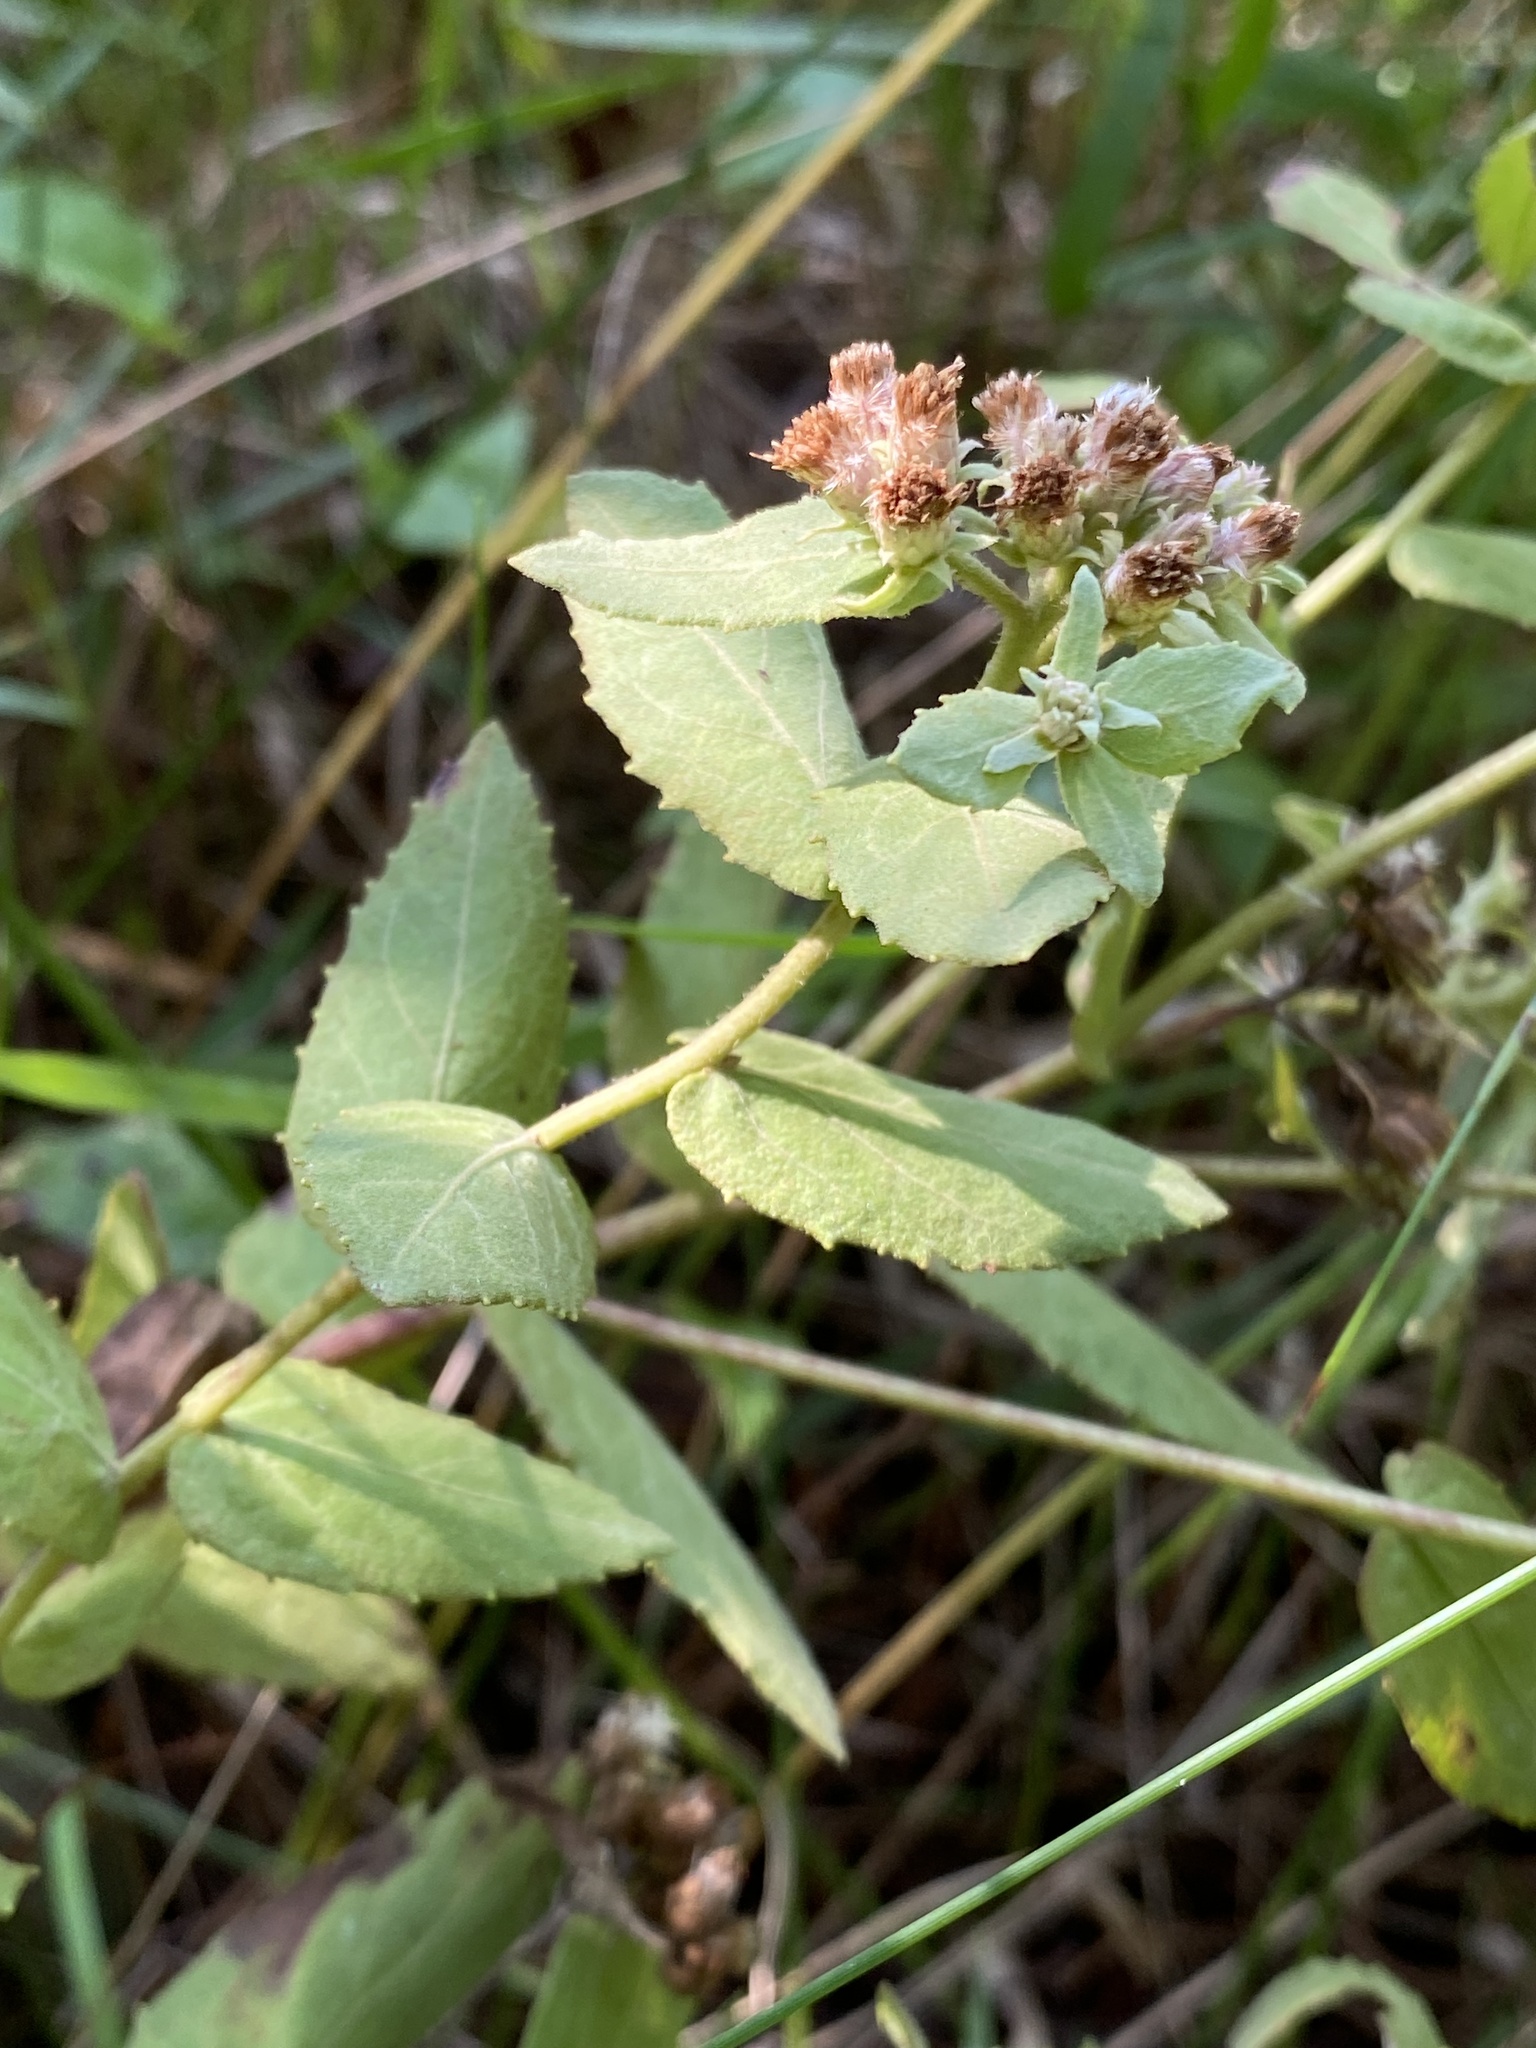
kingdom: Plantae
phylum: Tracheophyta
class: Magnoliopsida
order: Asterales
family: Asteraceae
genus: Pluchea
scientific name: Pluchea baccharis
